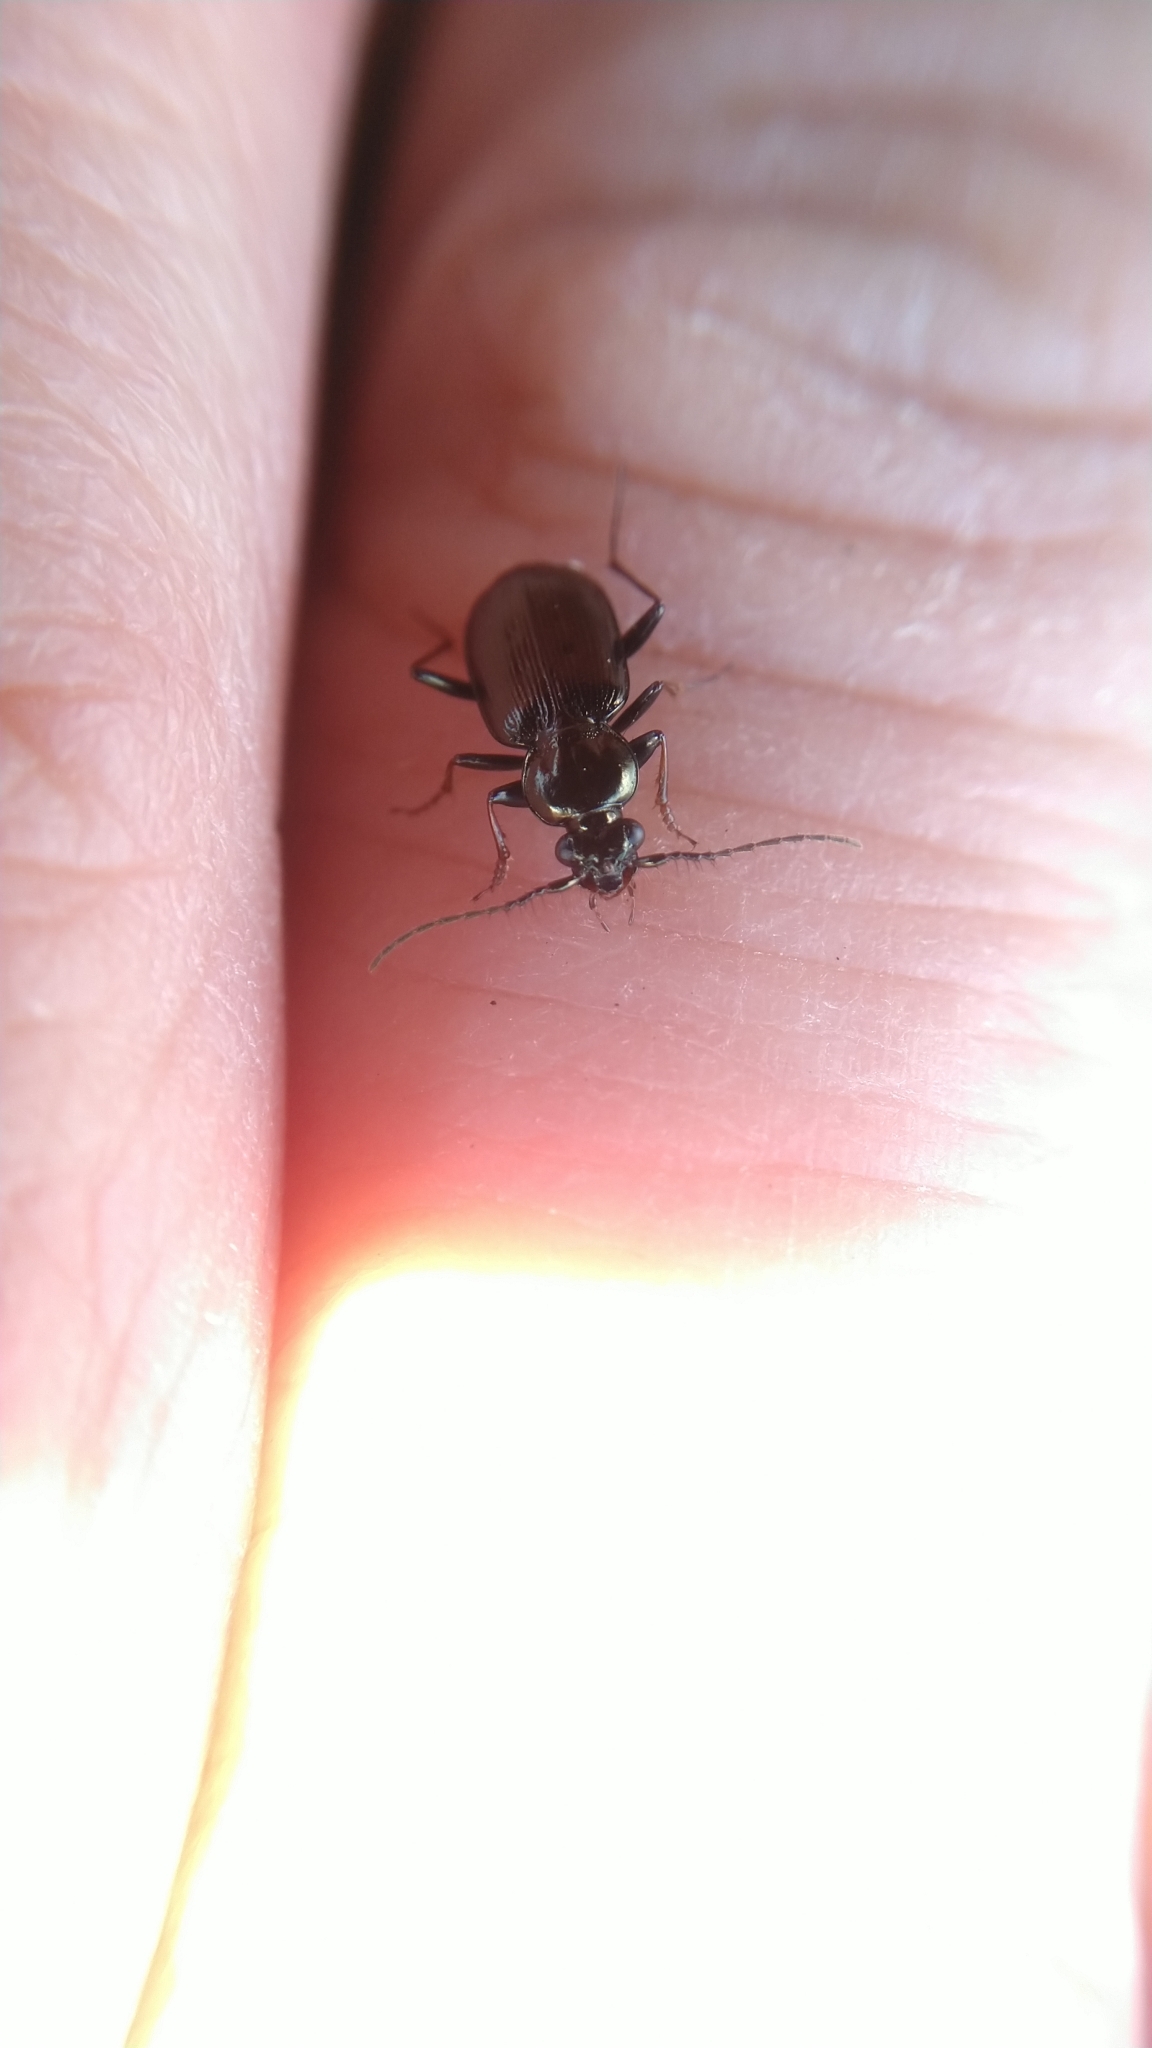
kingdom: Animalia
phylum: Arthropoda
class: Insecta
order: Coleoptera
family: Carabidae
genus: Loricera
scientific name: Loricera pilicornis
